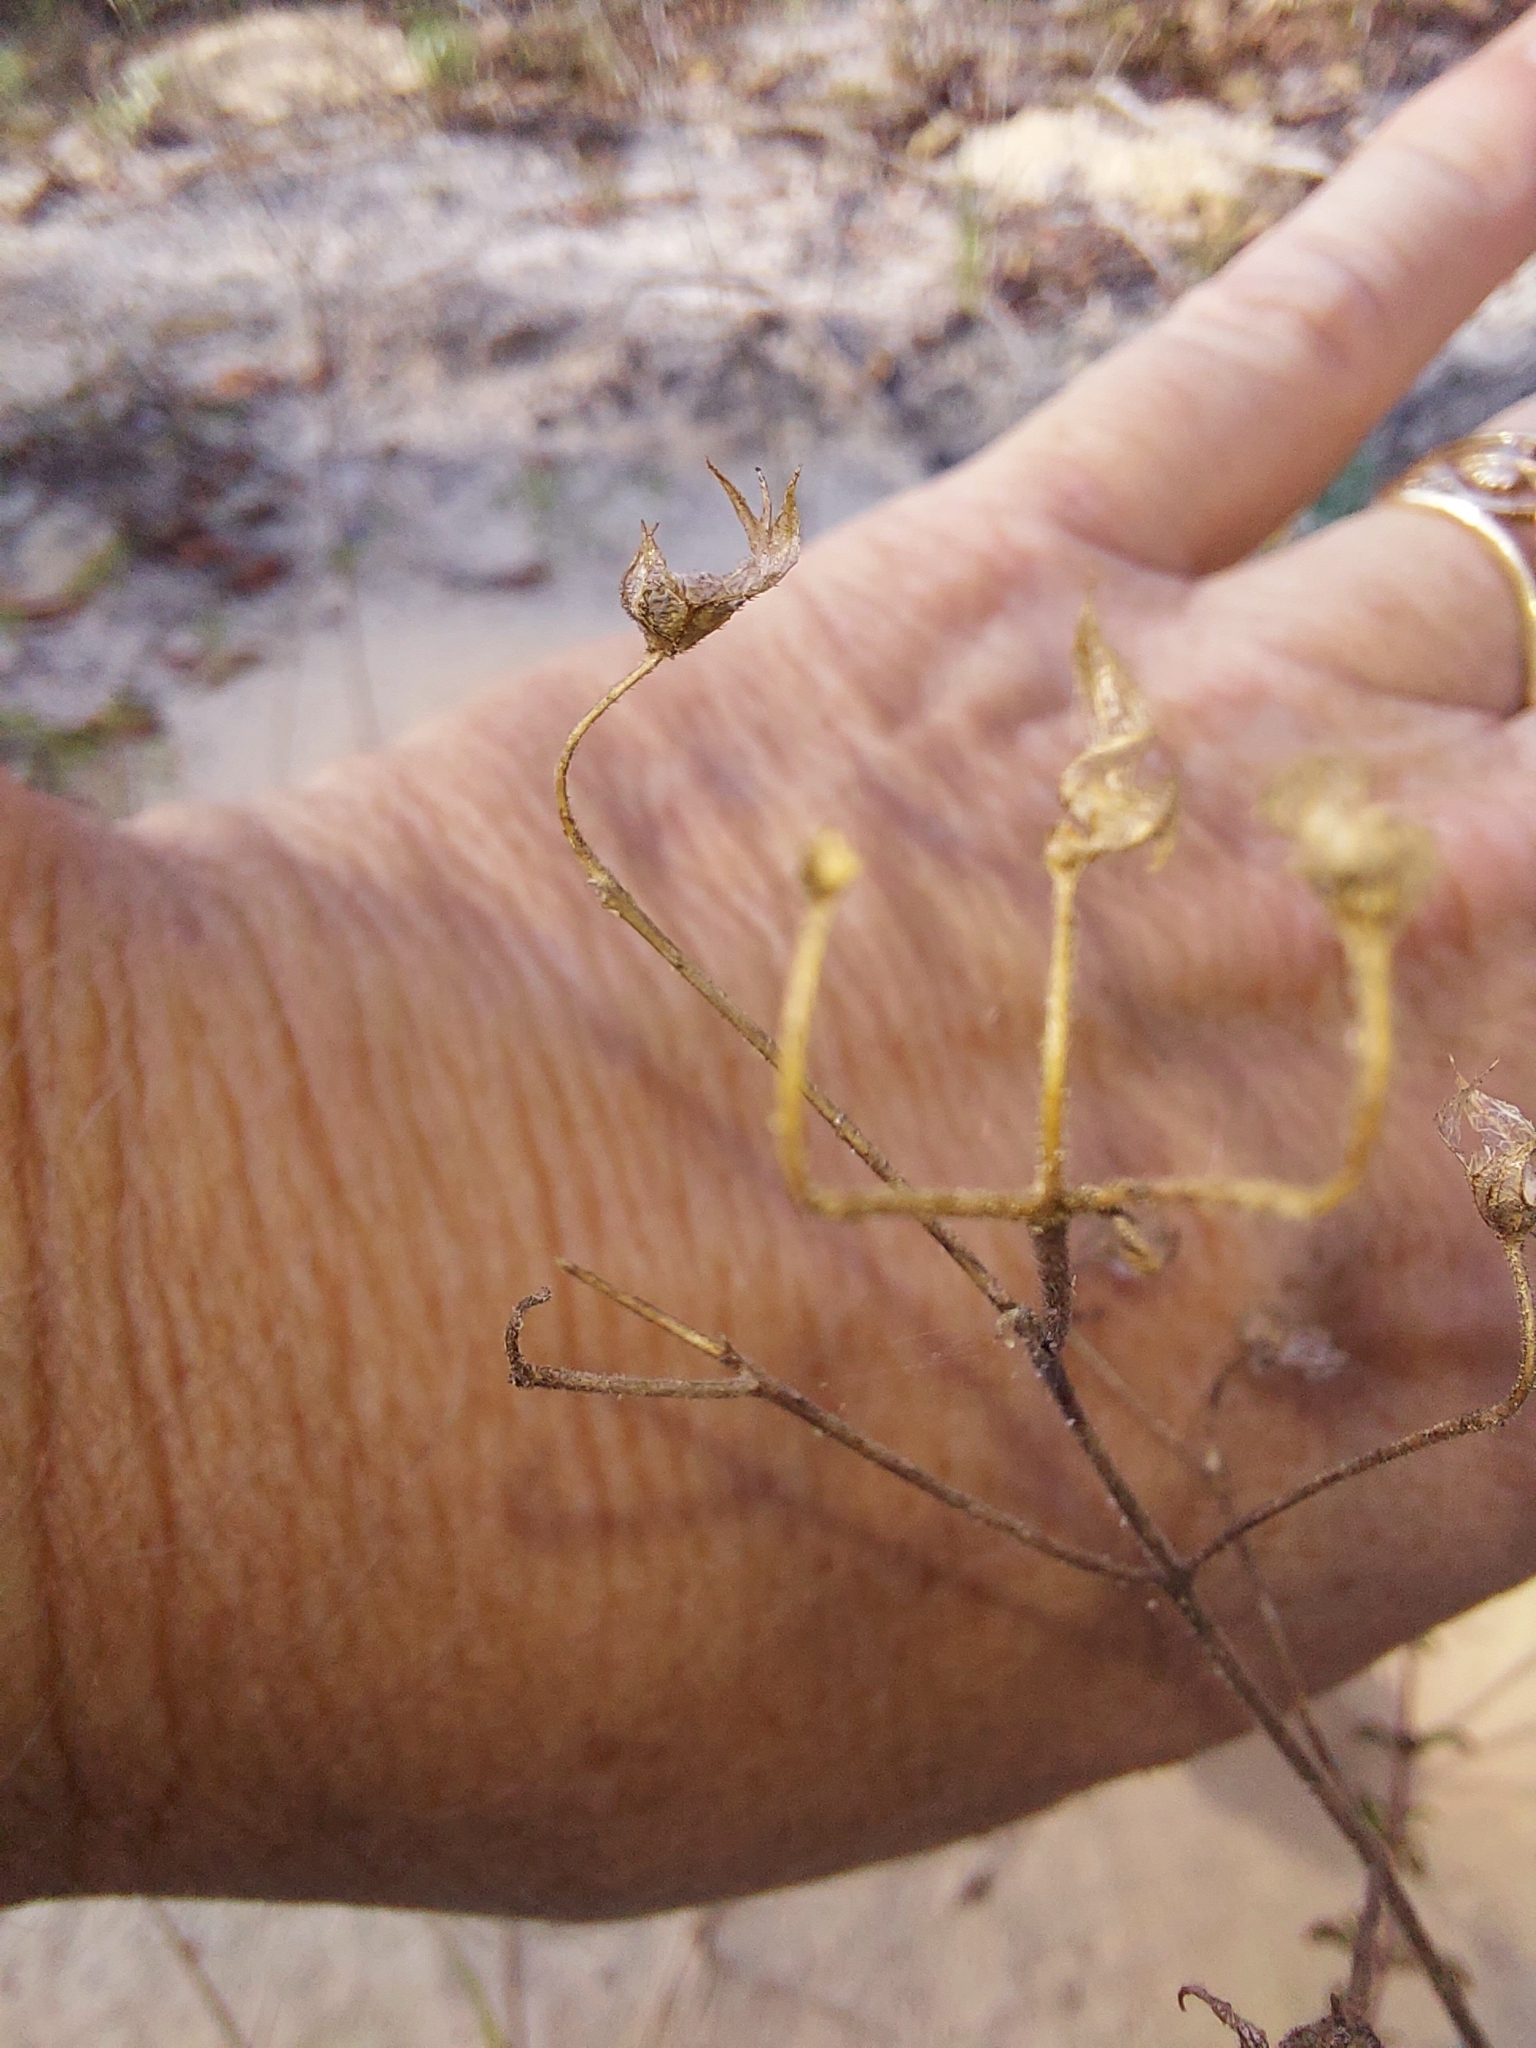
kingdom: Plantae
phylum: Tracheophyta
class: Magnoliopsida
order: Lamiales
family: Lamiaceae
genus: Trichostema
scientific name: Trichostema microphyllum
